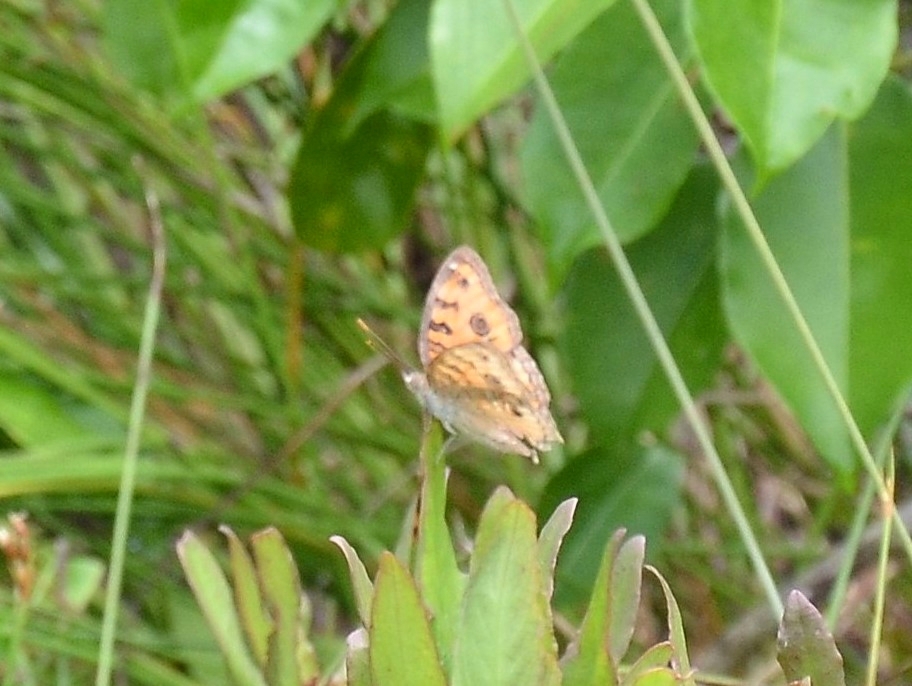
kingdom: Animalia
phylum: Arthropoda
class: Insecta
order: Lepidoptera
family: Nymphalidae
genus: Junonia
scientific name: Junonia almana
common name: Peacock pansy
